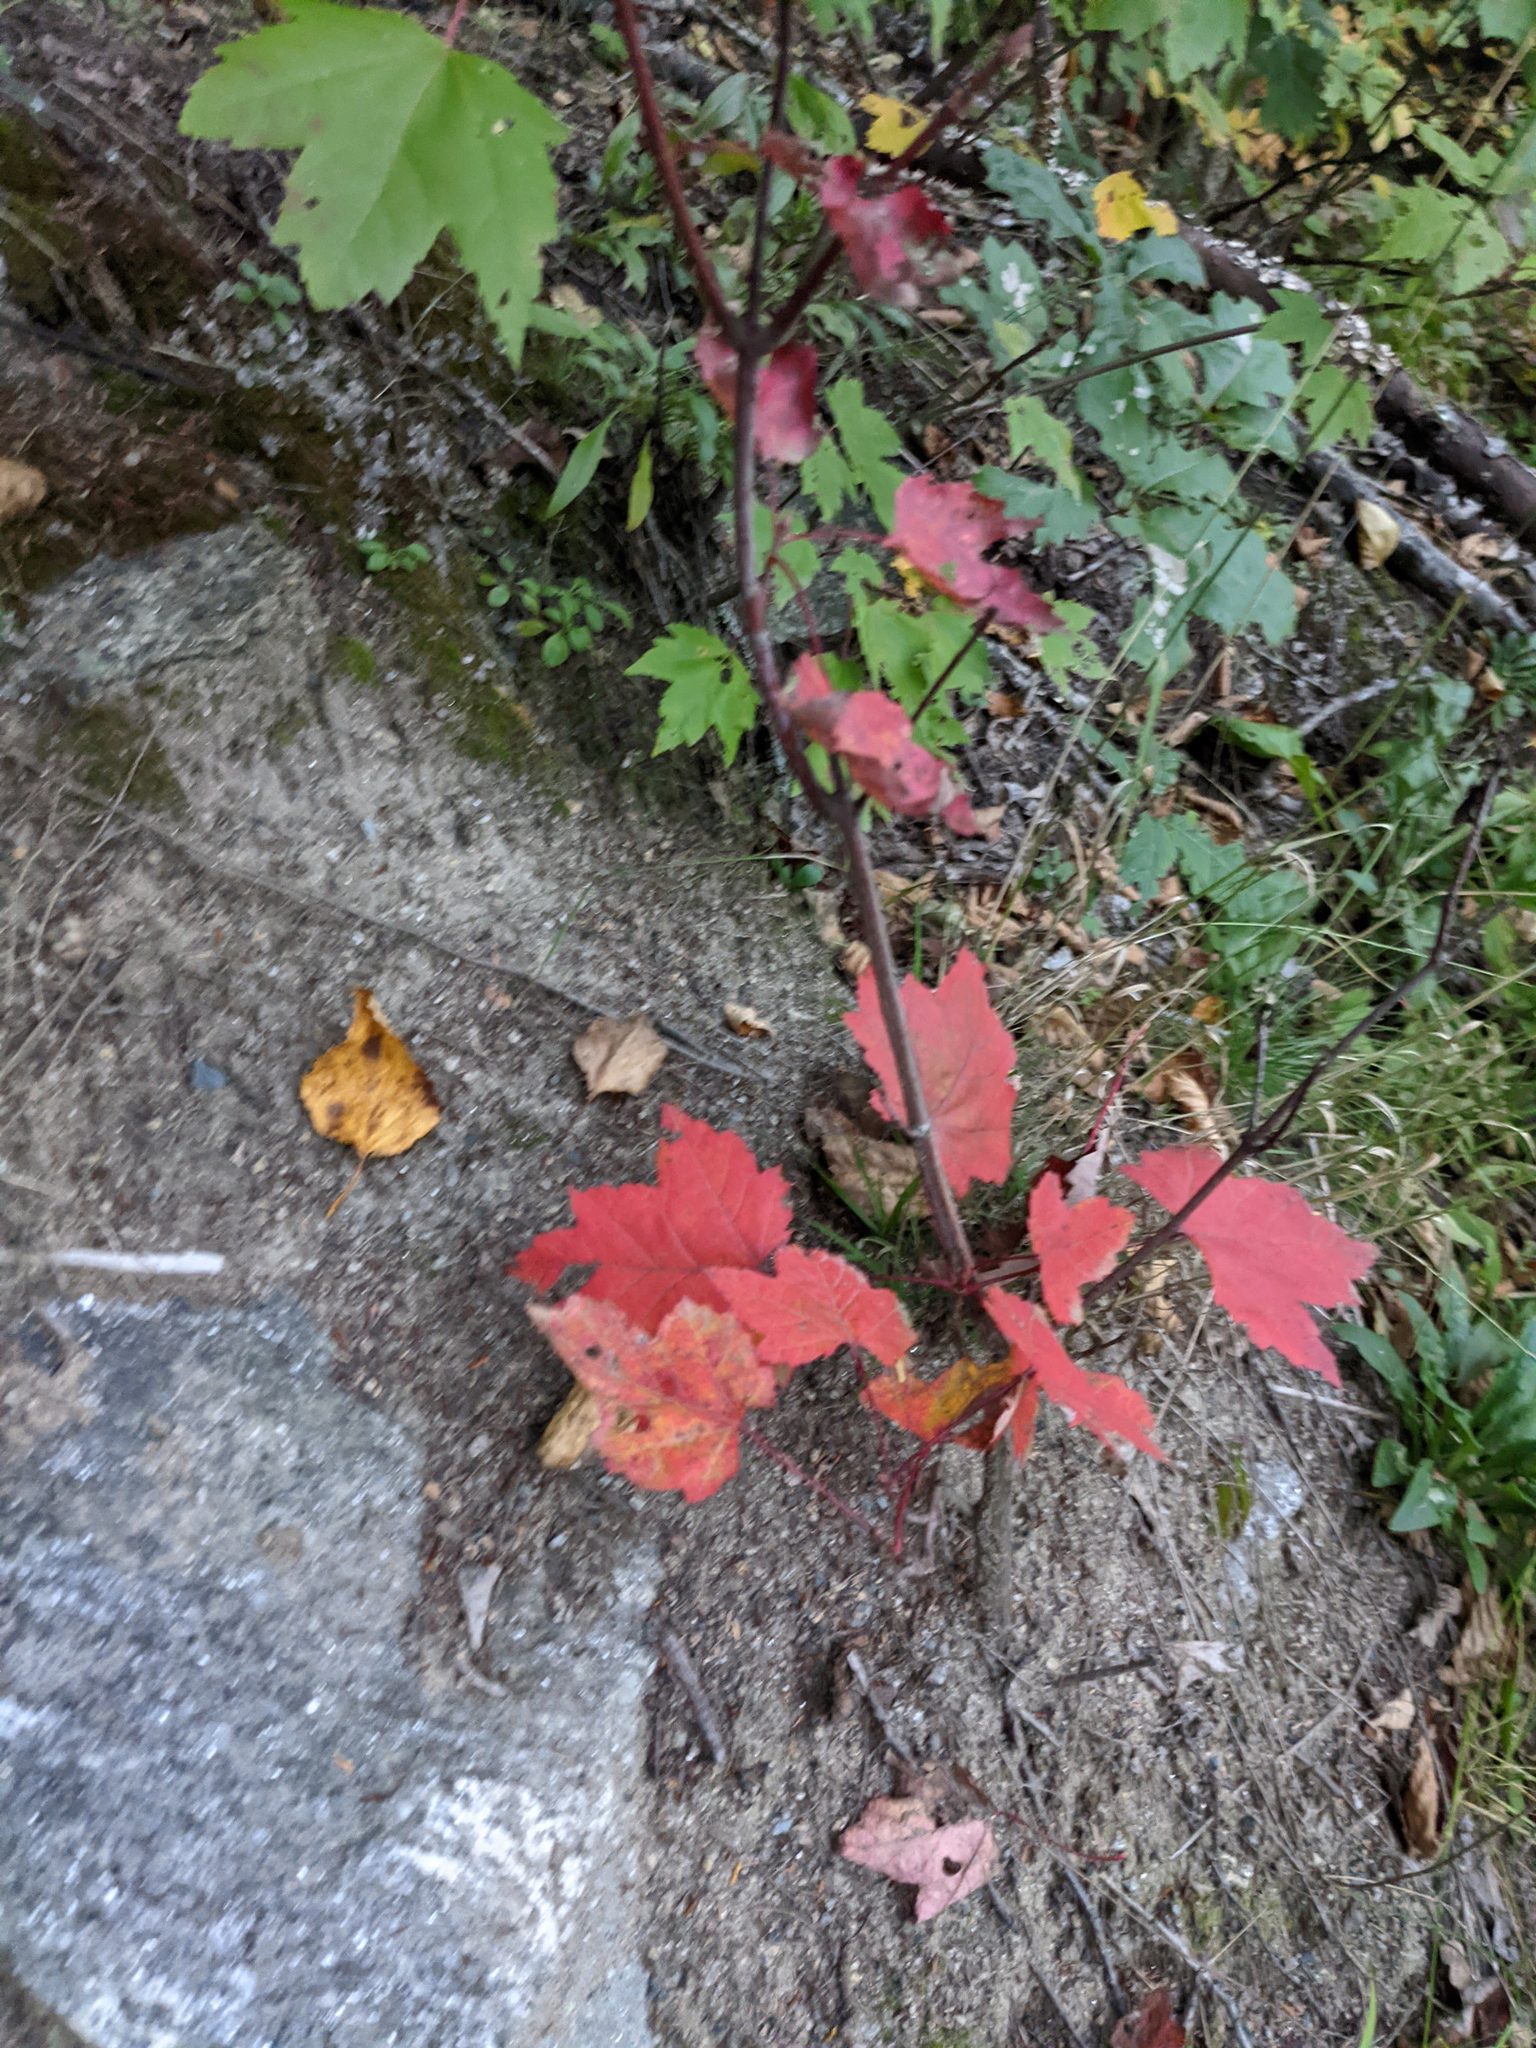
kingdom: Plantae
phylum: Tracheophyta
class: Magnoliopsida
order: Sapindales
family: Sapindaceae
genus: Acer
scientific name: Acer rubrum
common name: Red maple
